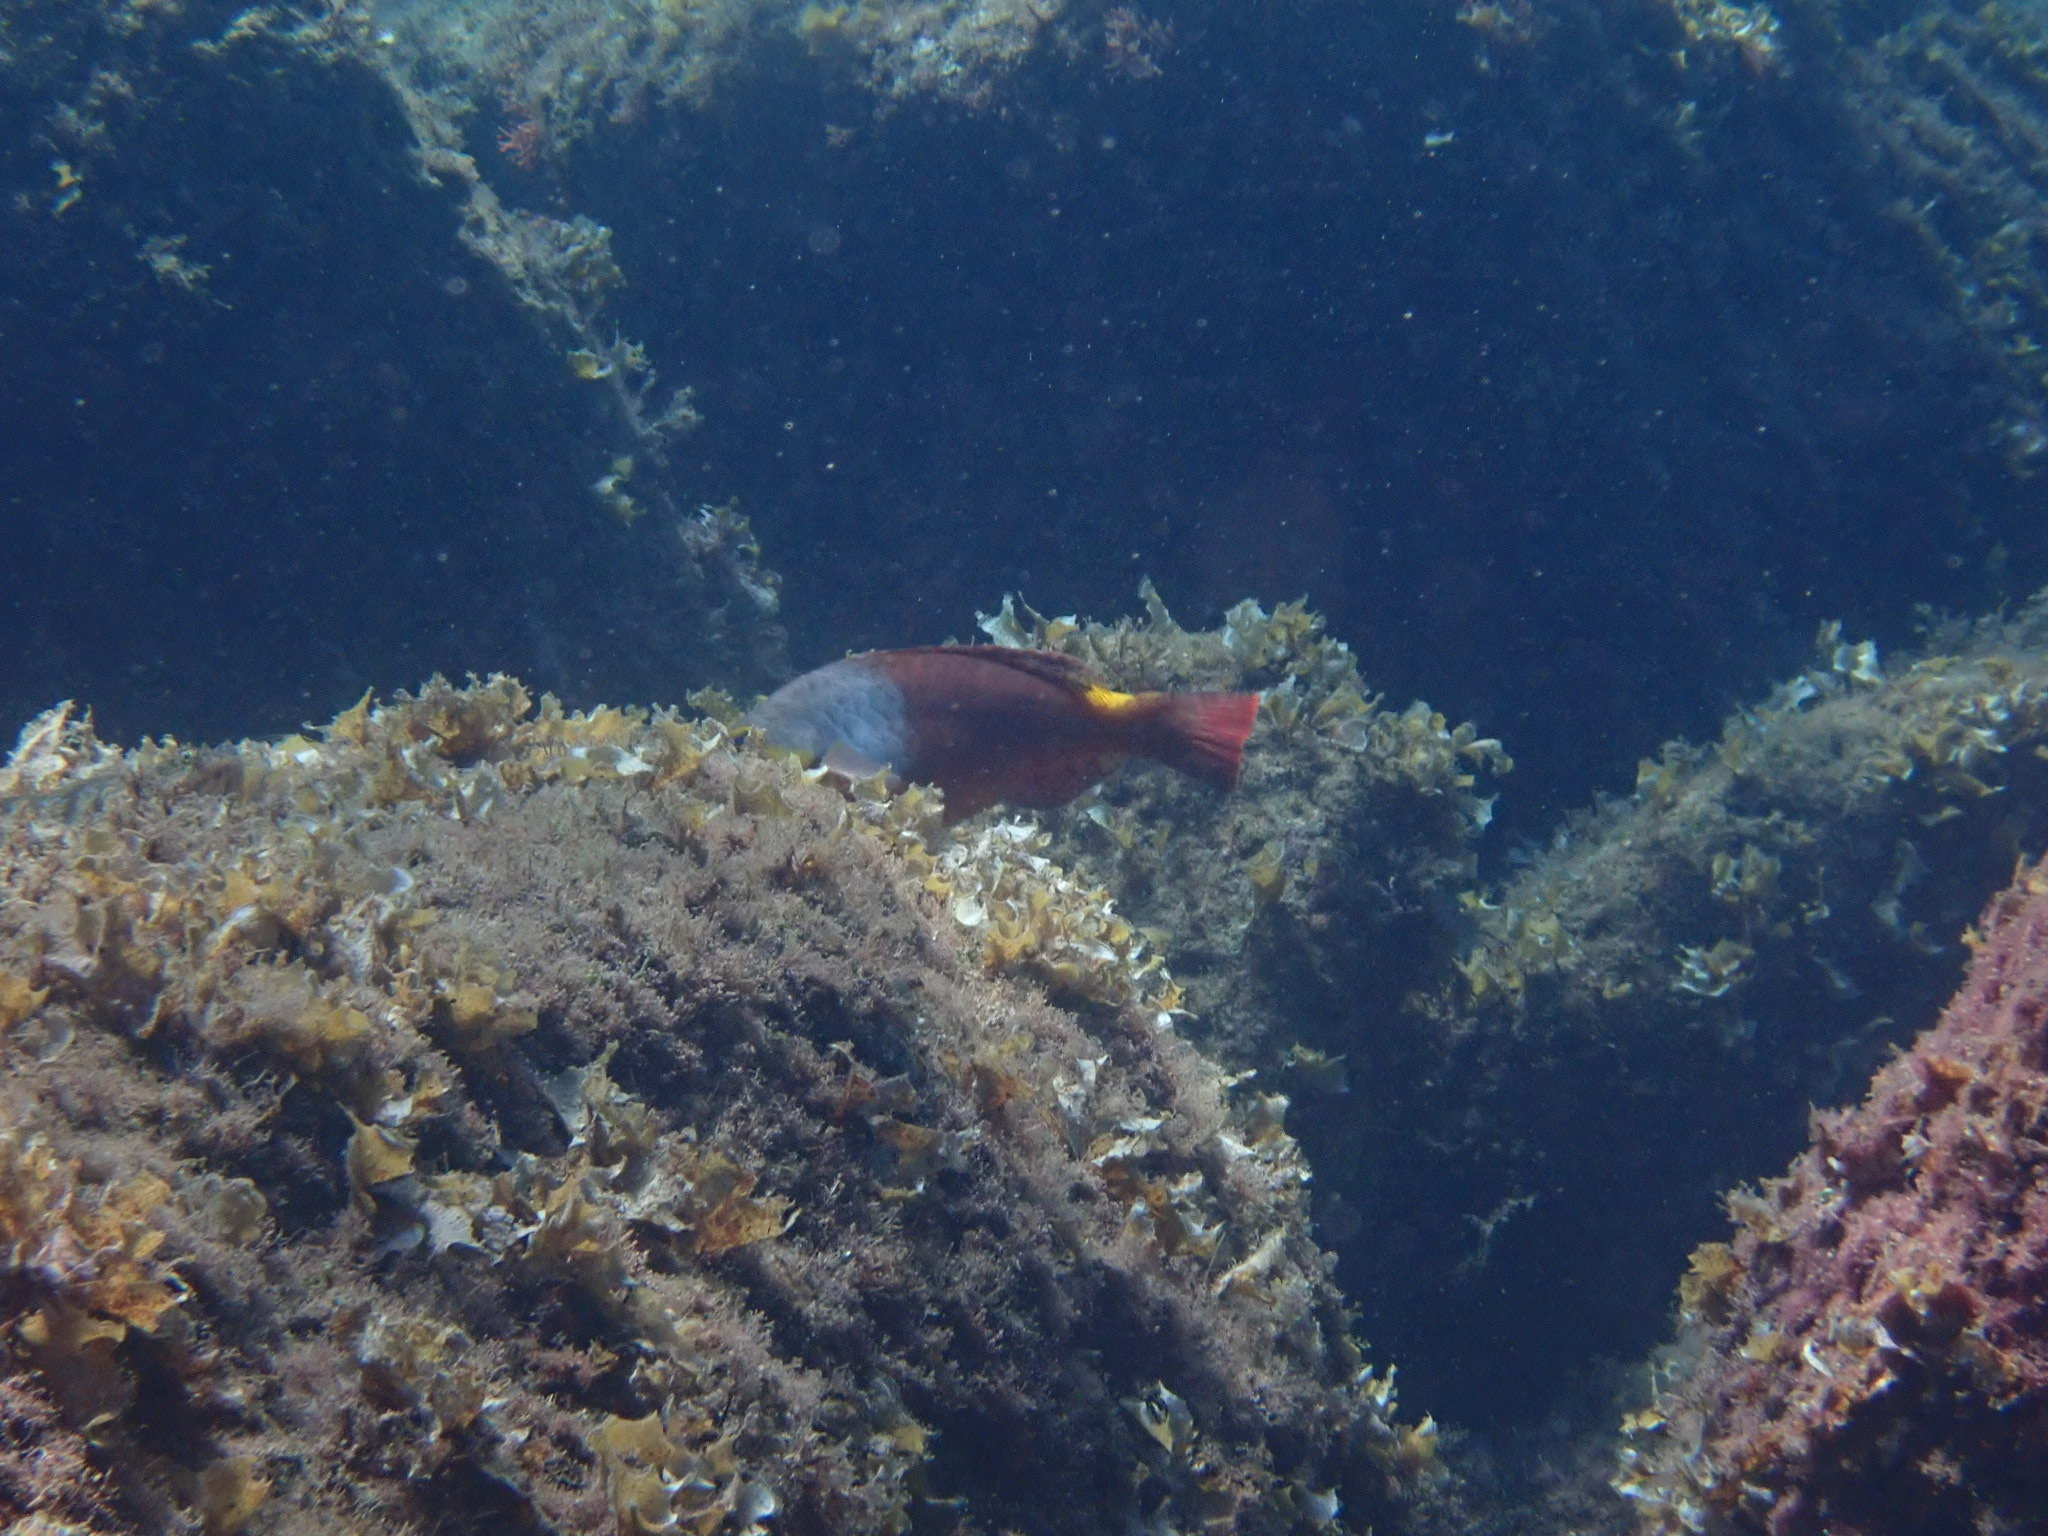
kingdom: Animalia
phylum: Chordata
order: Perciformes
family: Scaridae
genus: Sparisoma
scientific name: Sparisoma cretense
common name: Parrotfish
